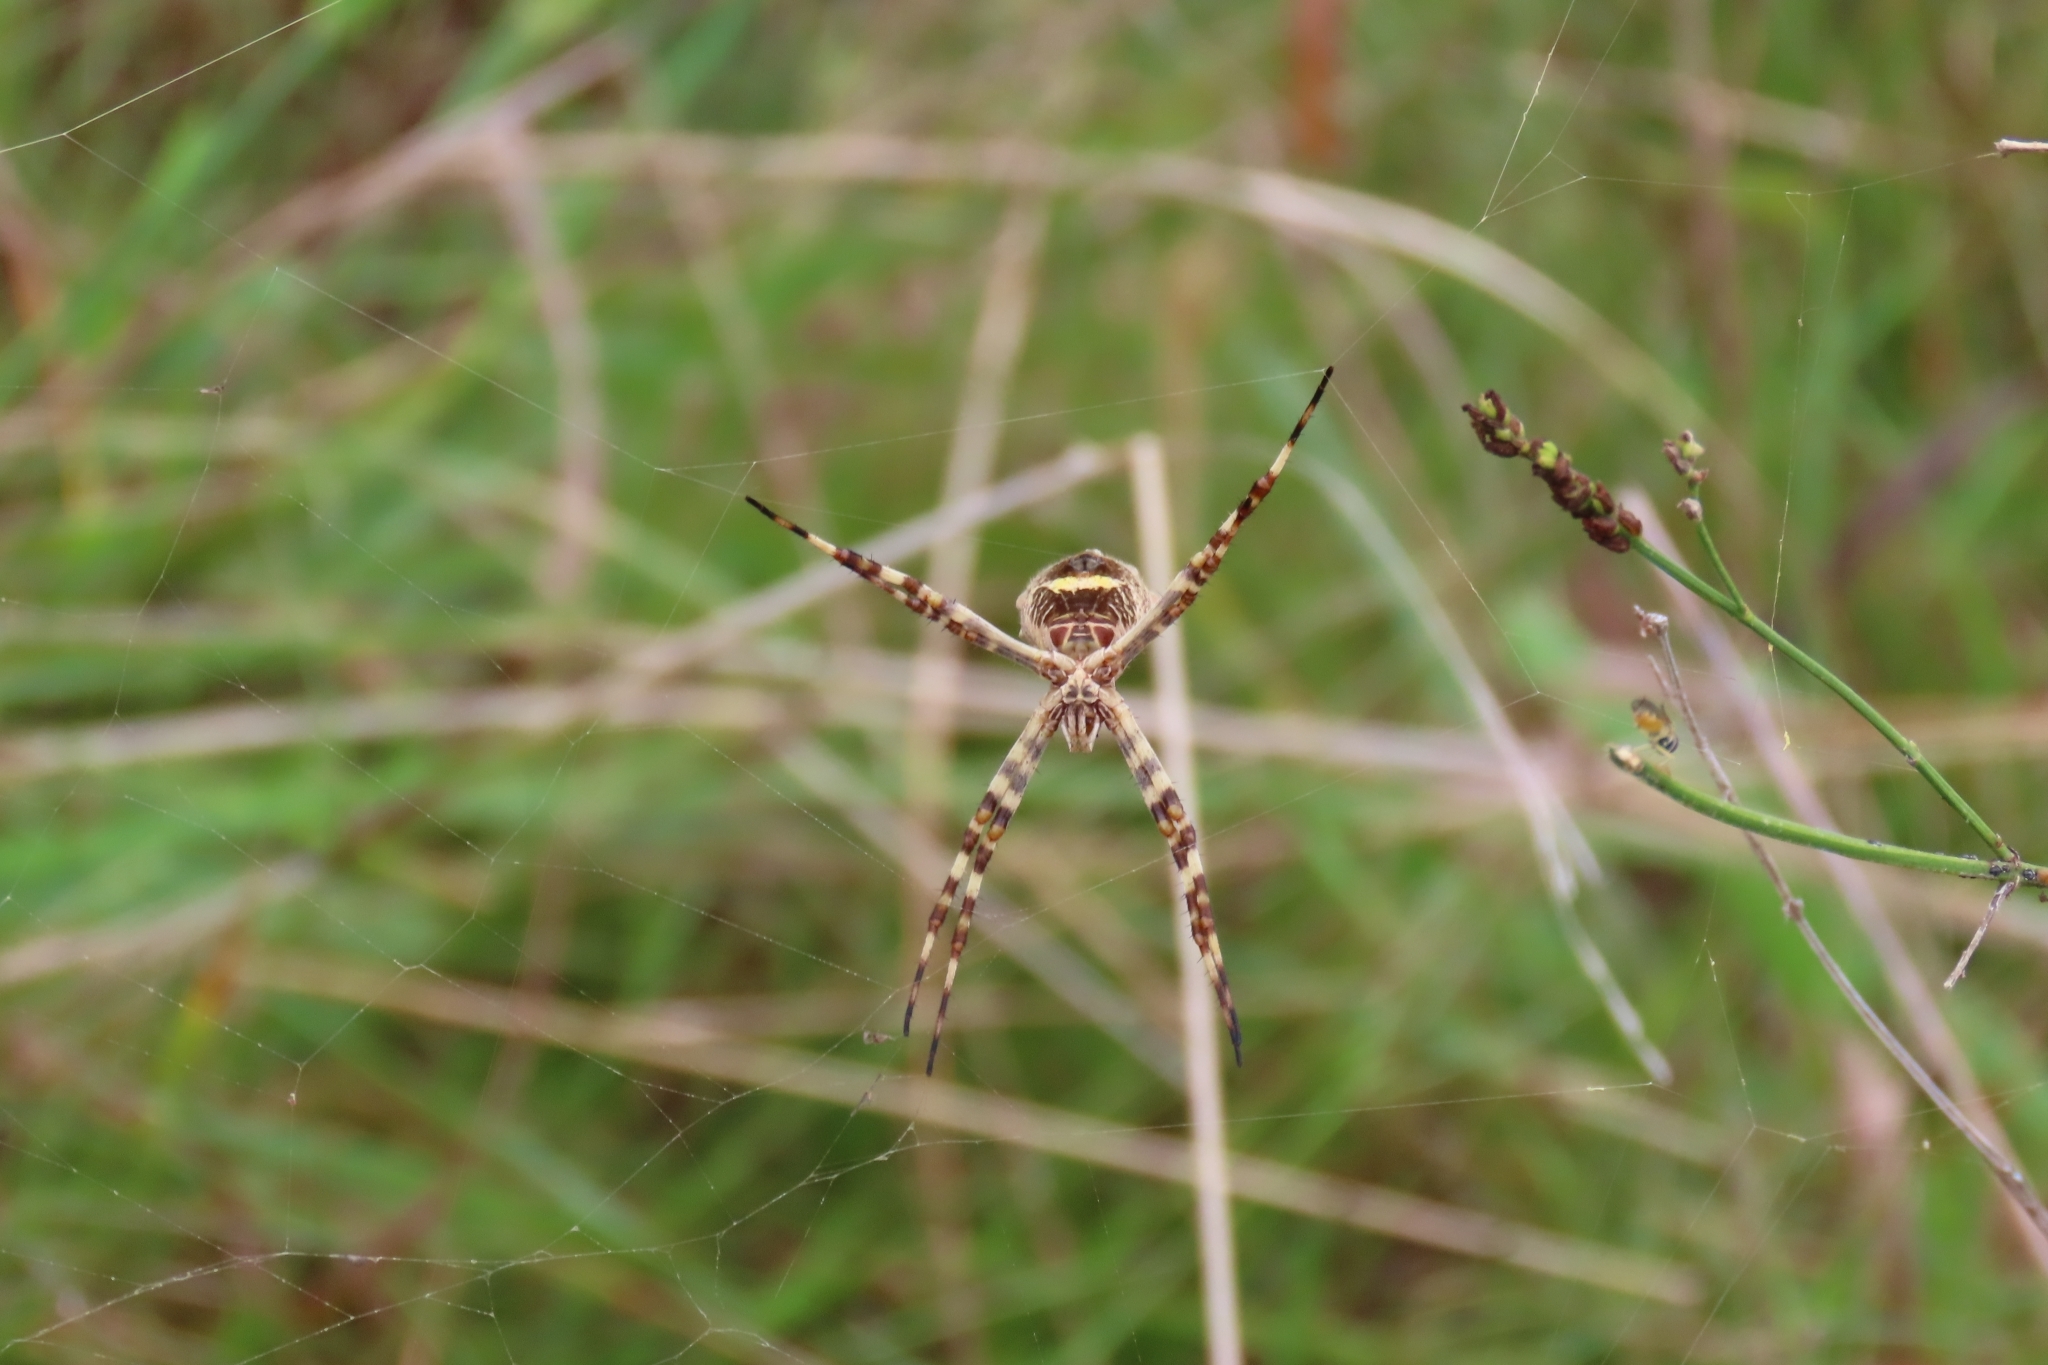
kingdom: Animalia
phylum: Arthropoda
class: Arachnida
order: Araneae
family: Araneidae
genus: Argiope
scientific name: Argiope argentata
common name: Orb weavers
